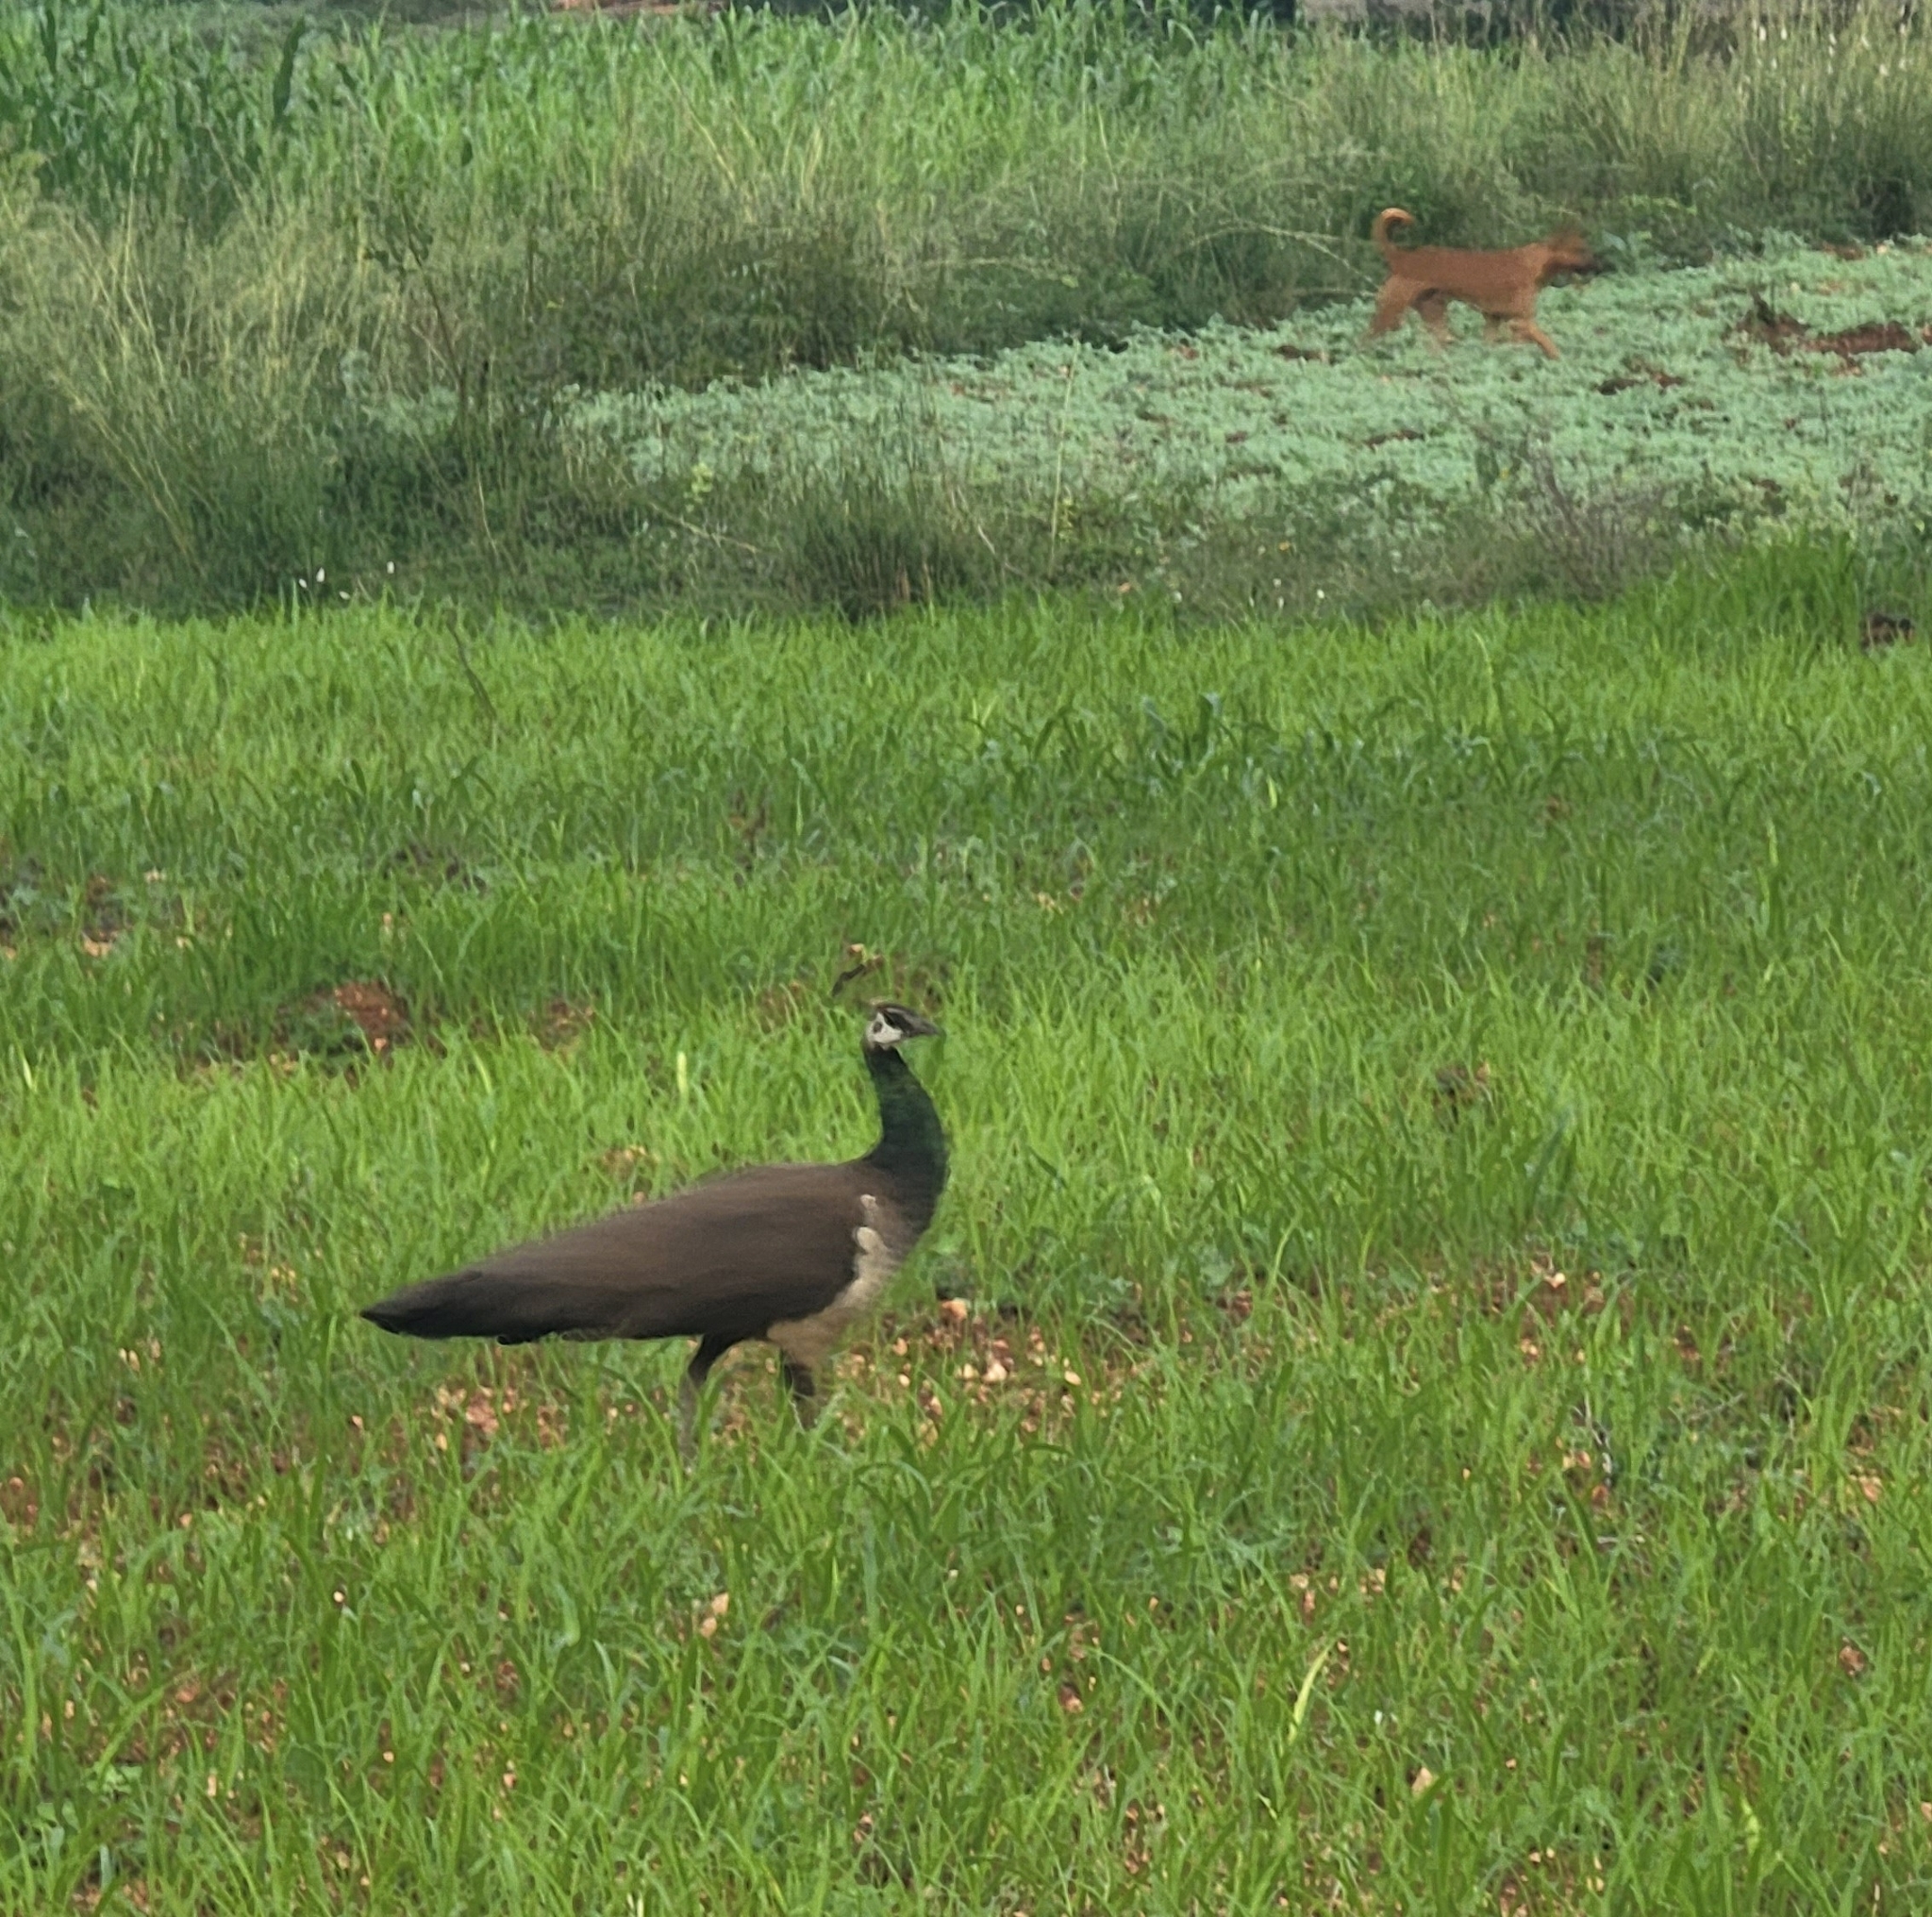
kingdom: Animalia
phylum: Chordata
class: Aves
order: Galliformes
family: Phasianidae
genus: Pavo
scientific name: Pavo cristatus
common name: Indian peafowl
